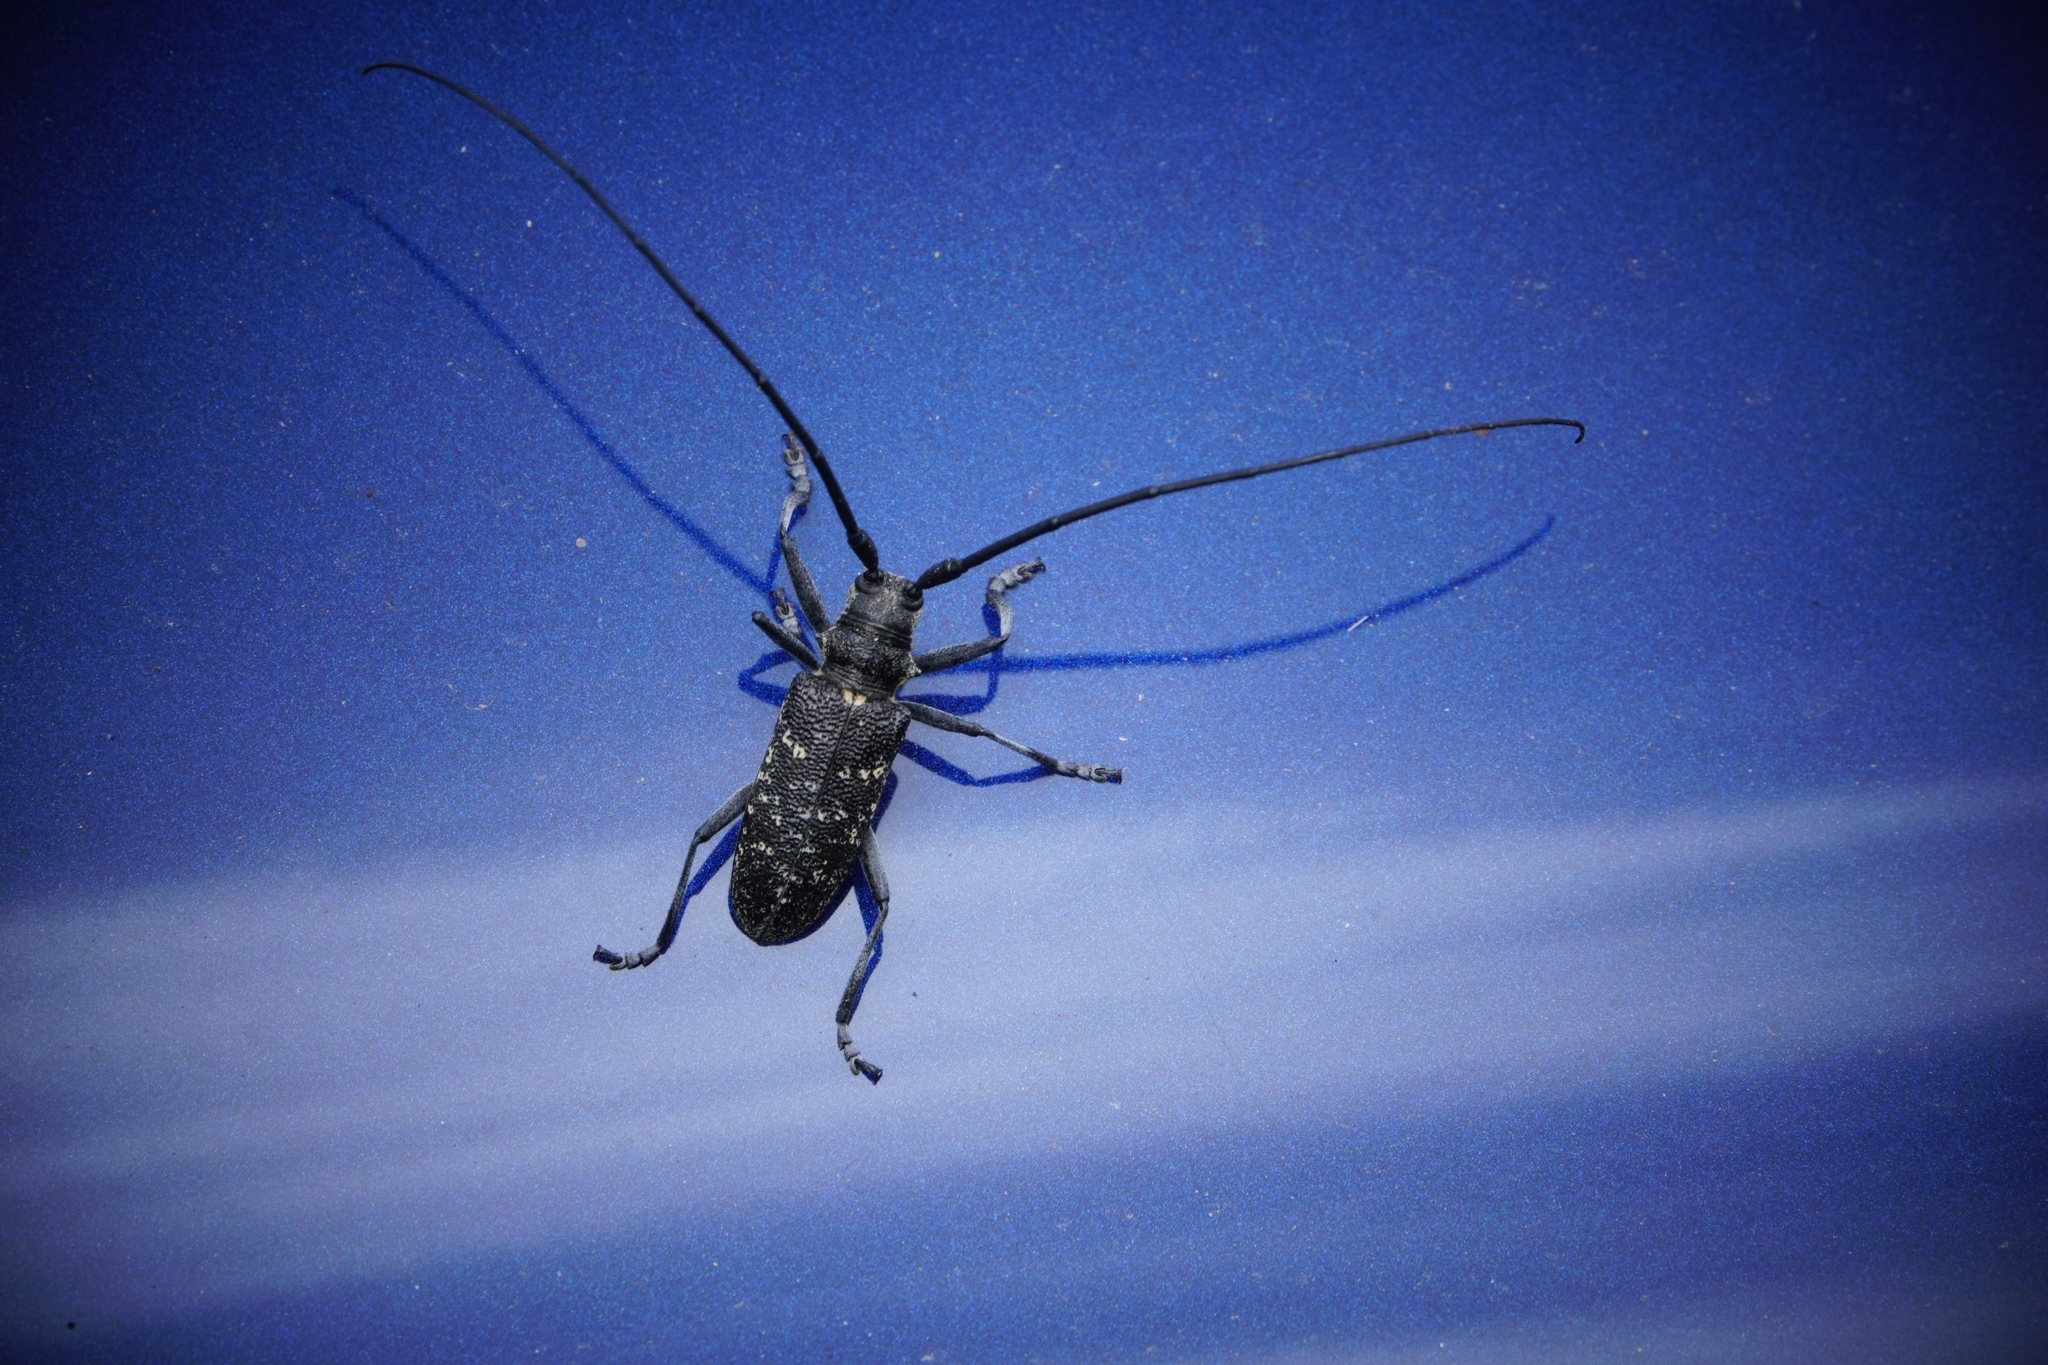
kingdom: Animalia
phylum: Arthropoda
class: Insecta
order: Coleoptera
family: Cerambycidae
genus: Monochamus
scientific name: Monochamus sutor
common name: Pine sawyer
